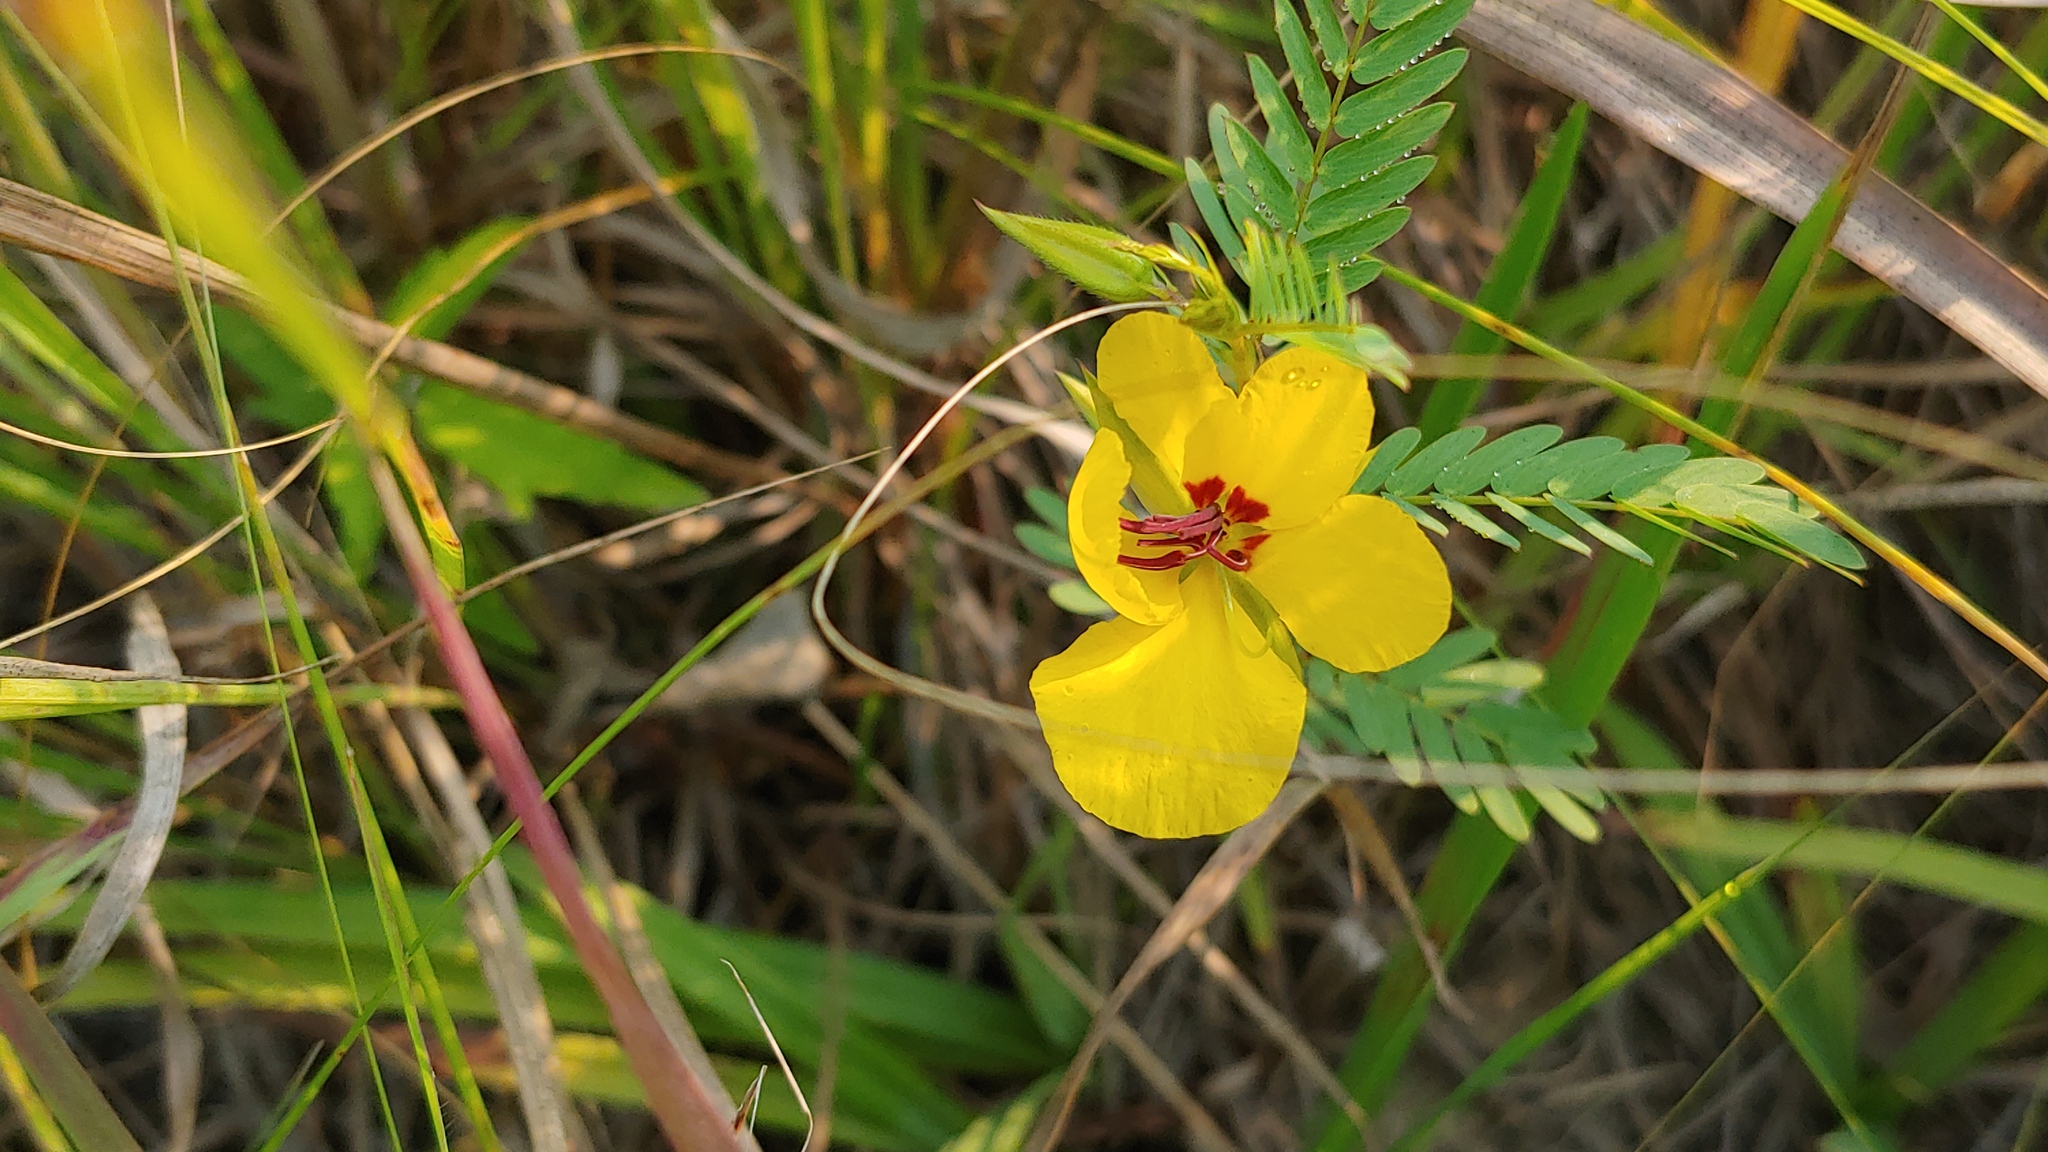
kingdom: Plantae
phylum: Tracheophyta
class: Magnoliopsida
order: Fabales
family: Fabaceae
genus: Chamaecrista
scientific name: Chamaecrista fasciculata
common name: Golden cassia
